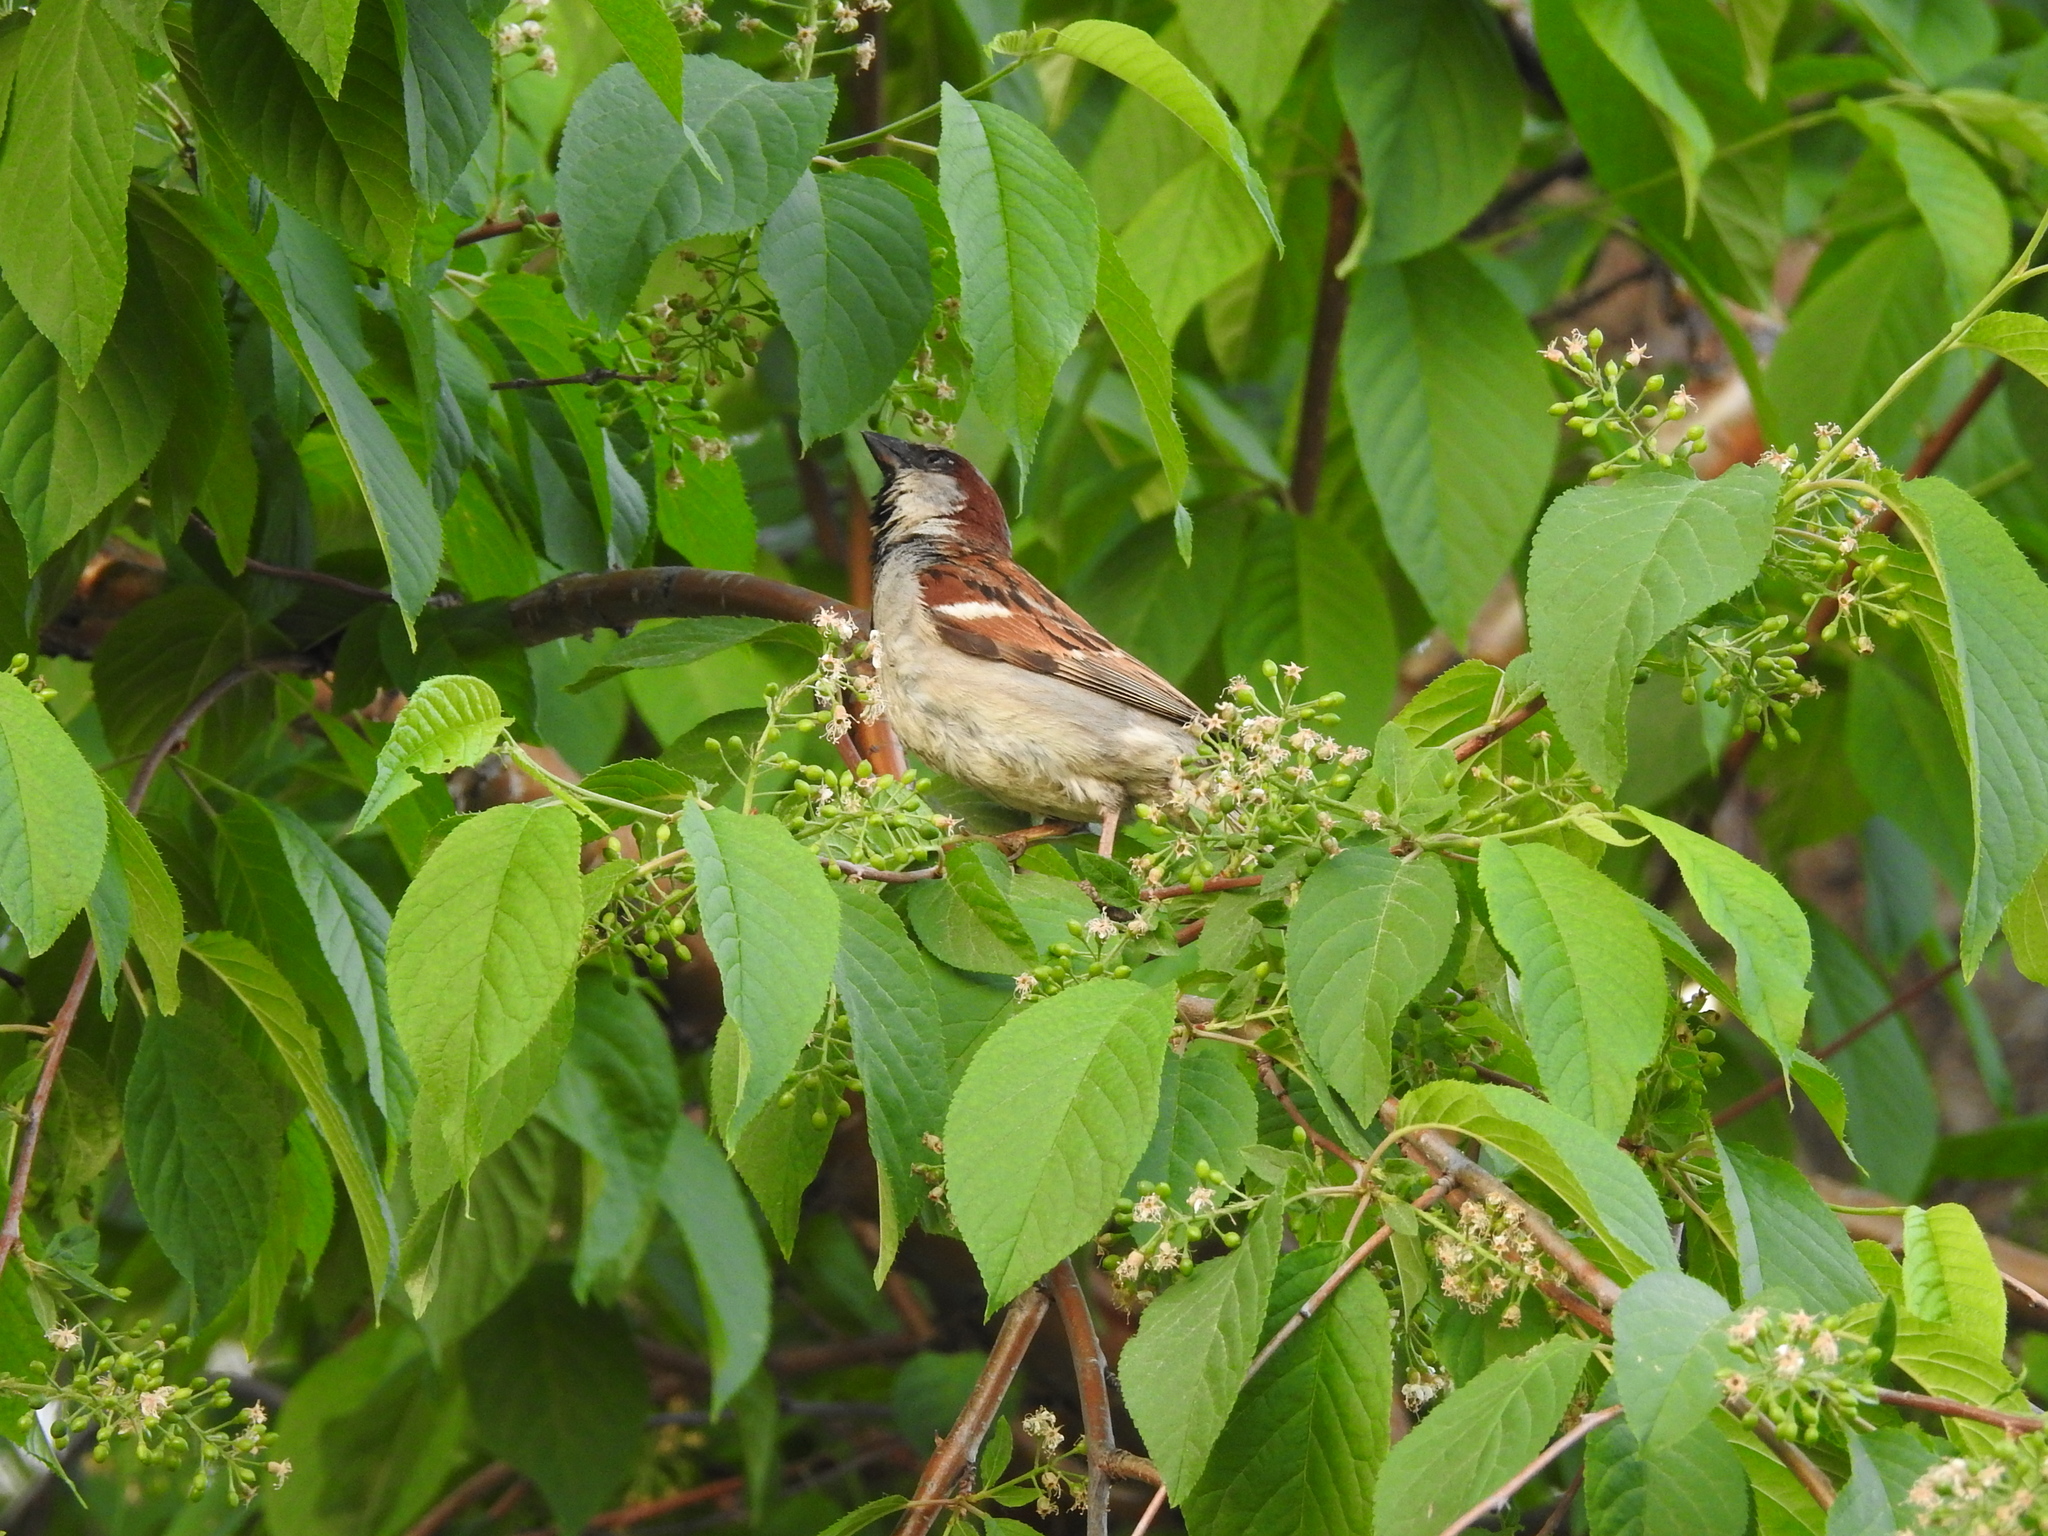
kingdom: Animalia
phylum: Chordata
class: Aves
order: Passeriformes
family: Passeridae
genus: Passer
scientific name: Passer domesticus
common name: House sparrow
